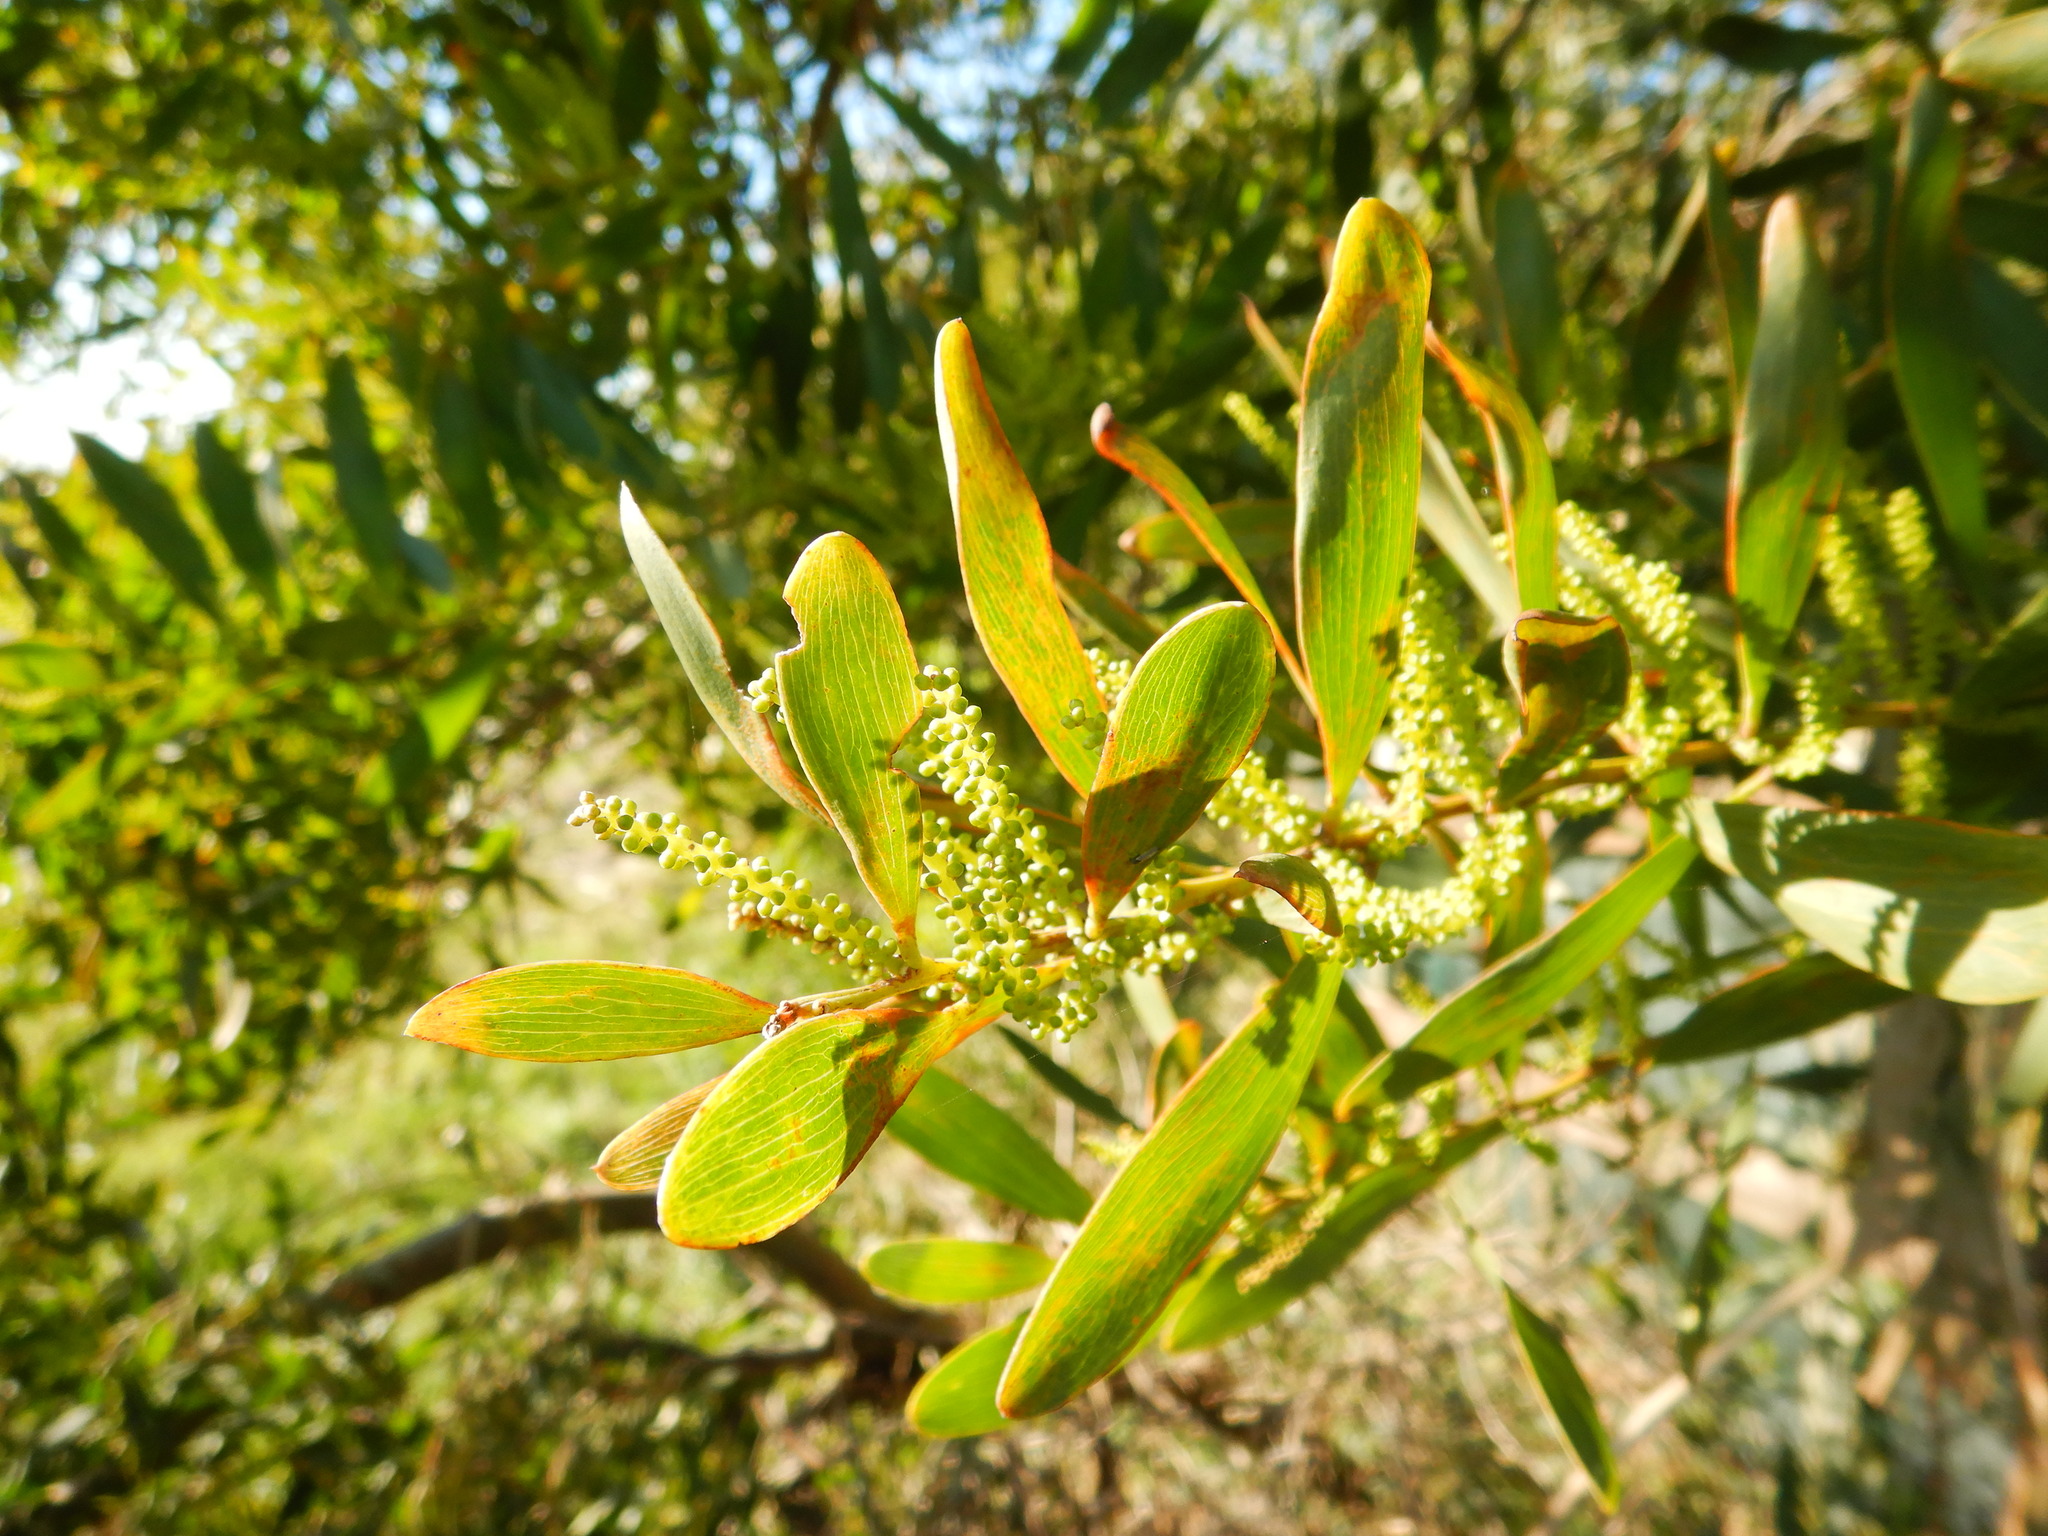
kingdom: Plantae
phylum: Tracheophyta
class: Magnoliopsida
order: Fabales
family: Fabaceae
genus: Acacia
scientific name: Acacia longifolia
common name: Sydney golden wattle
